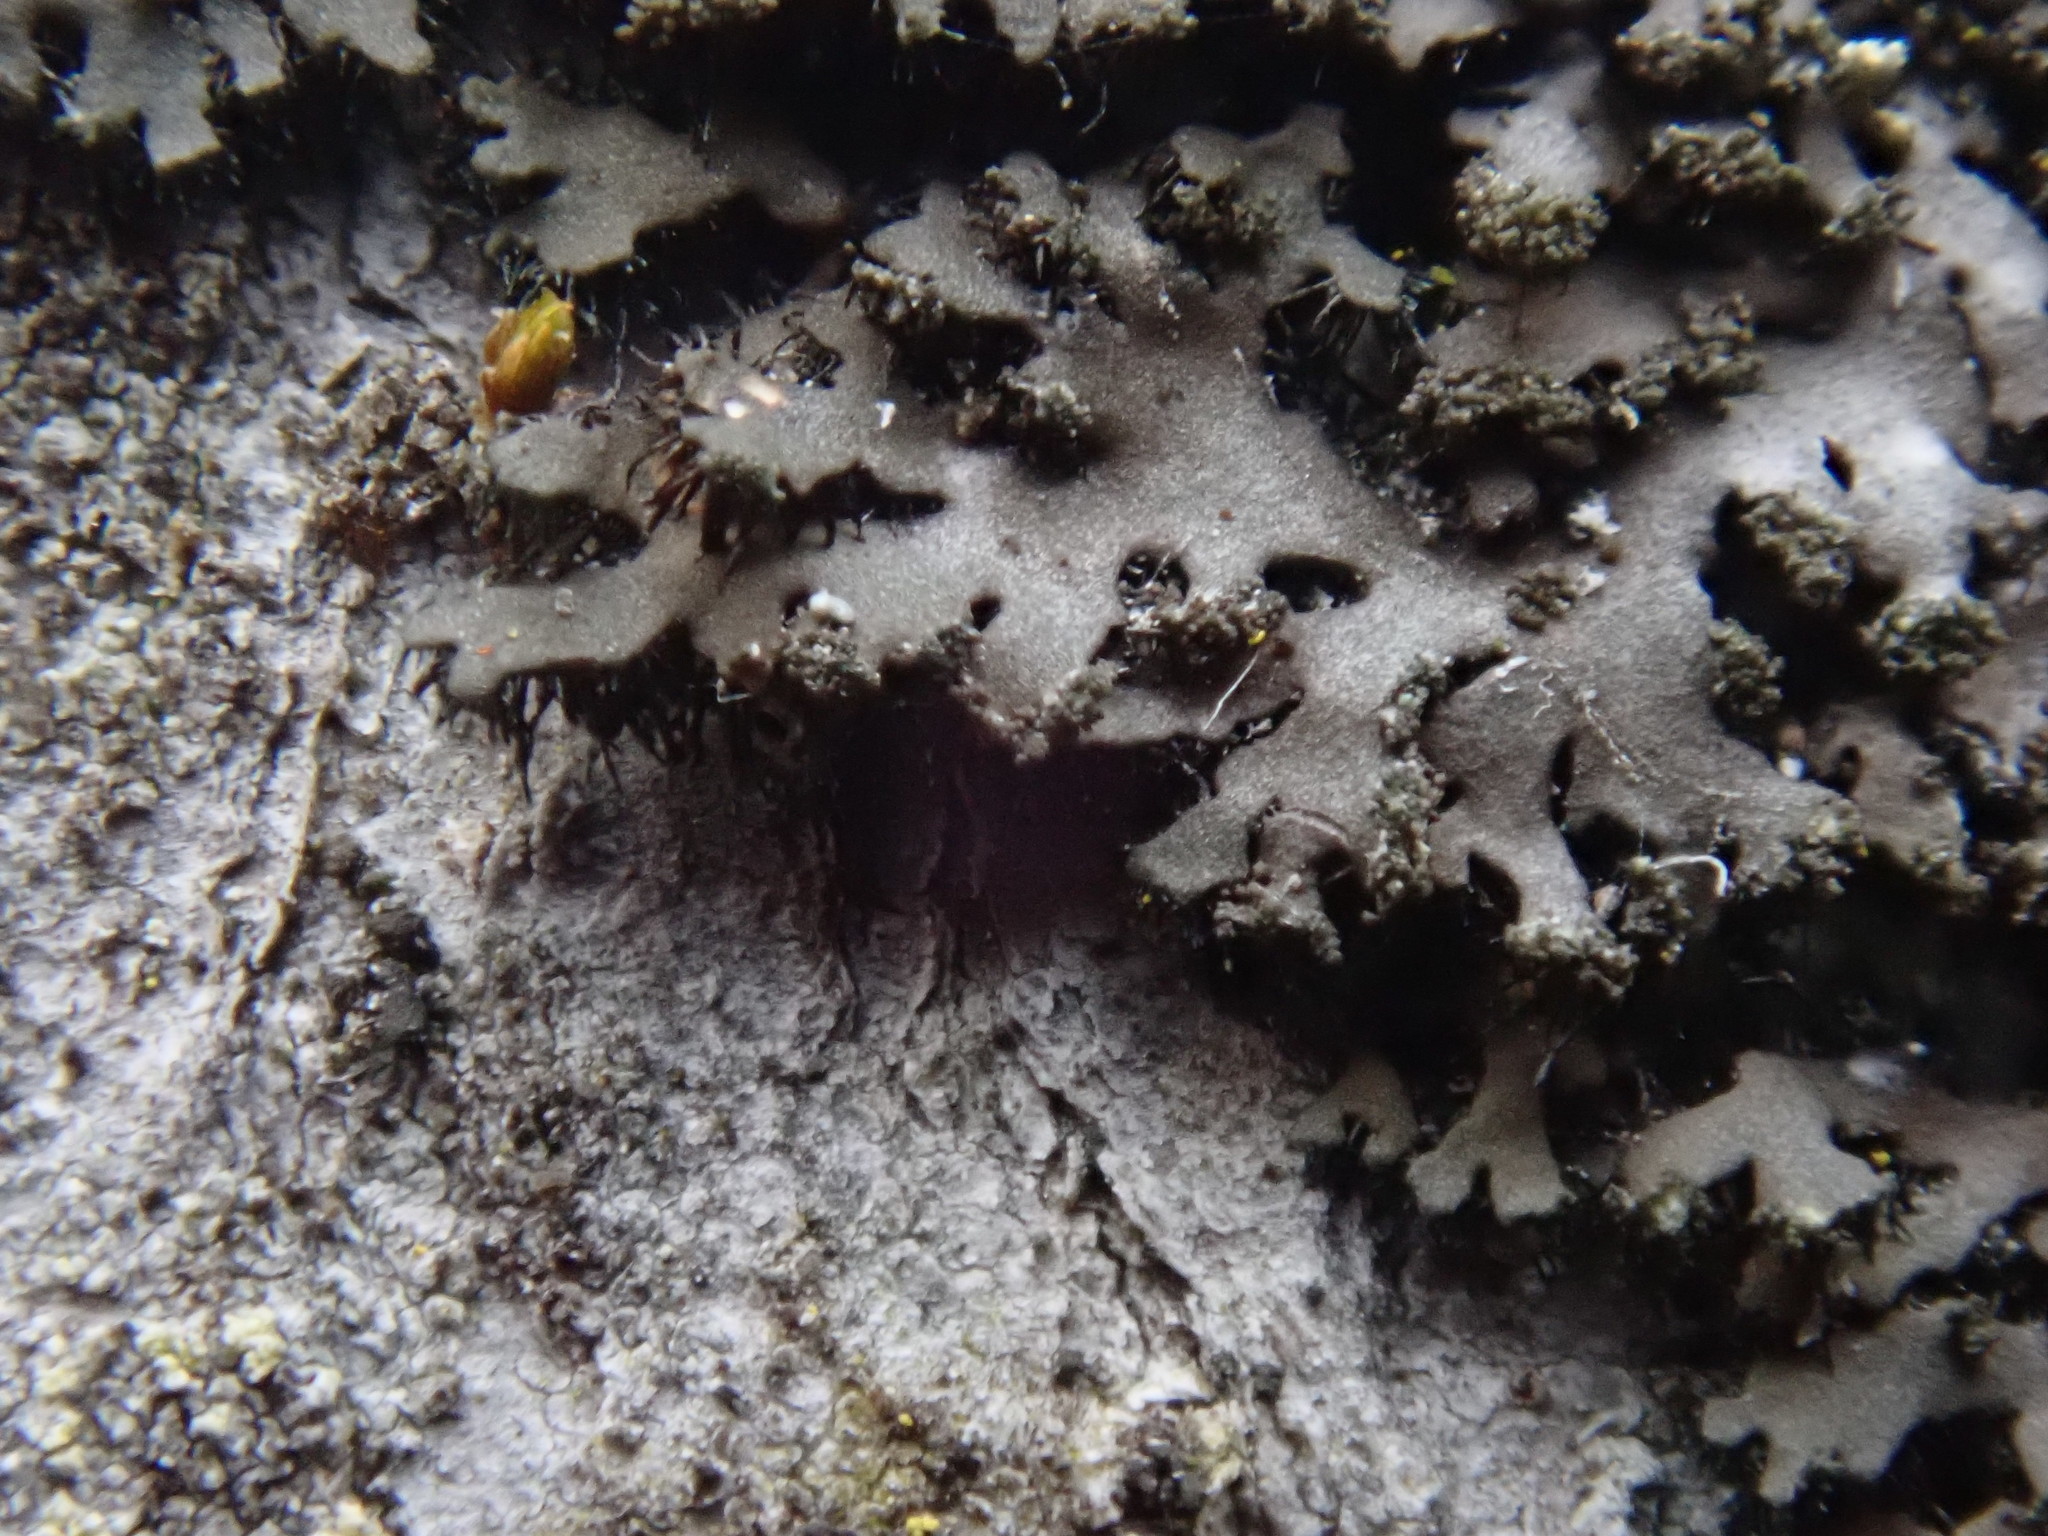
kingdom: Fungi
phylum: Ascomycota
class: Lecanoromycetes
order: Lecanorales
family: Parmeliaceae
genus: Parmelia
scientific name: Parmelia squarrosa
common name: Bottle brush shield lichen
